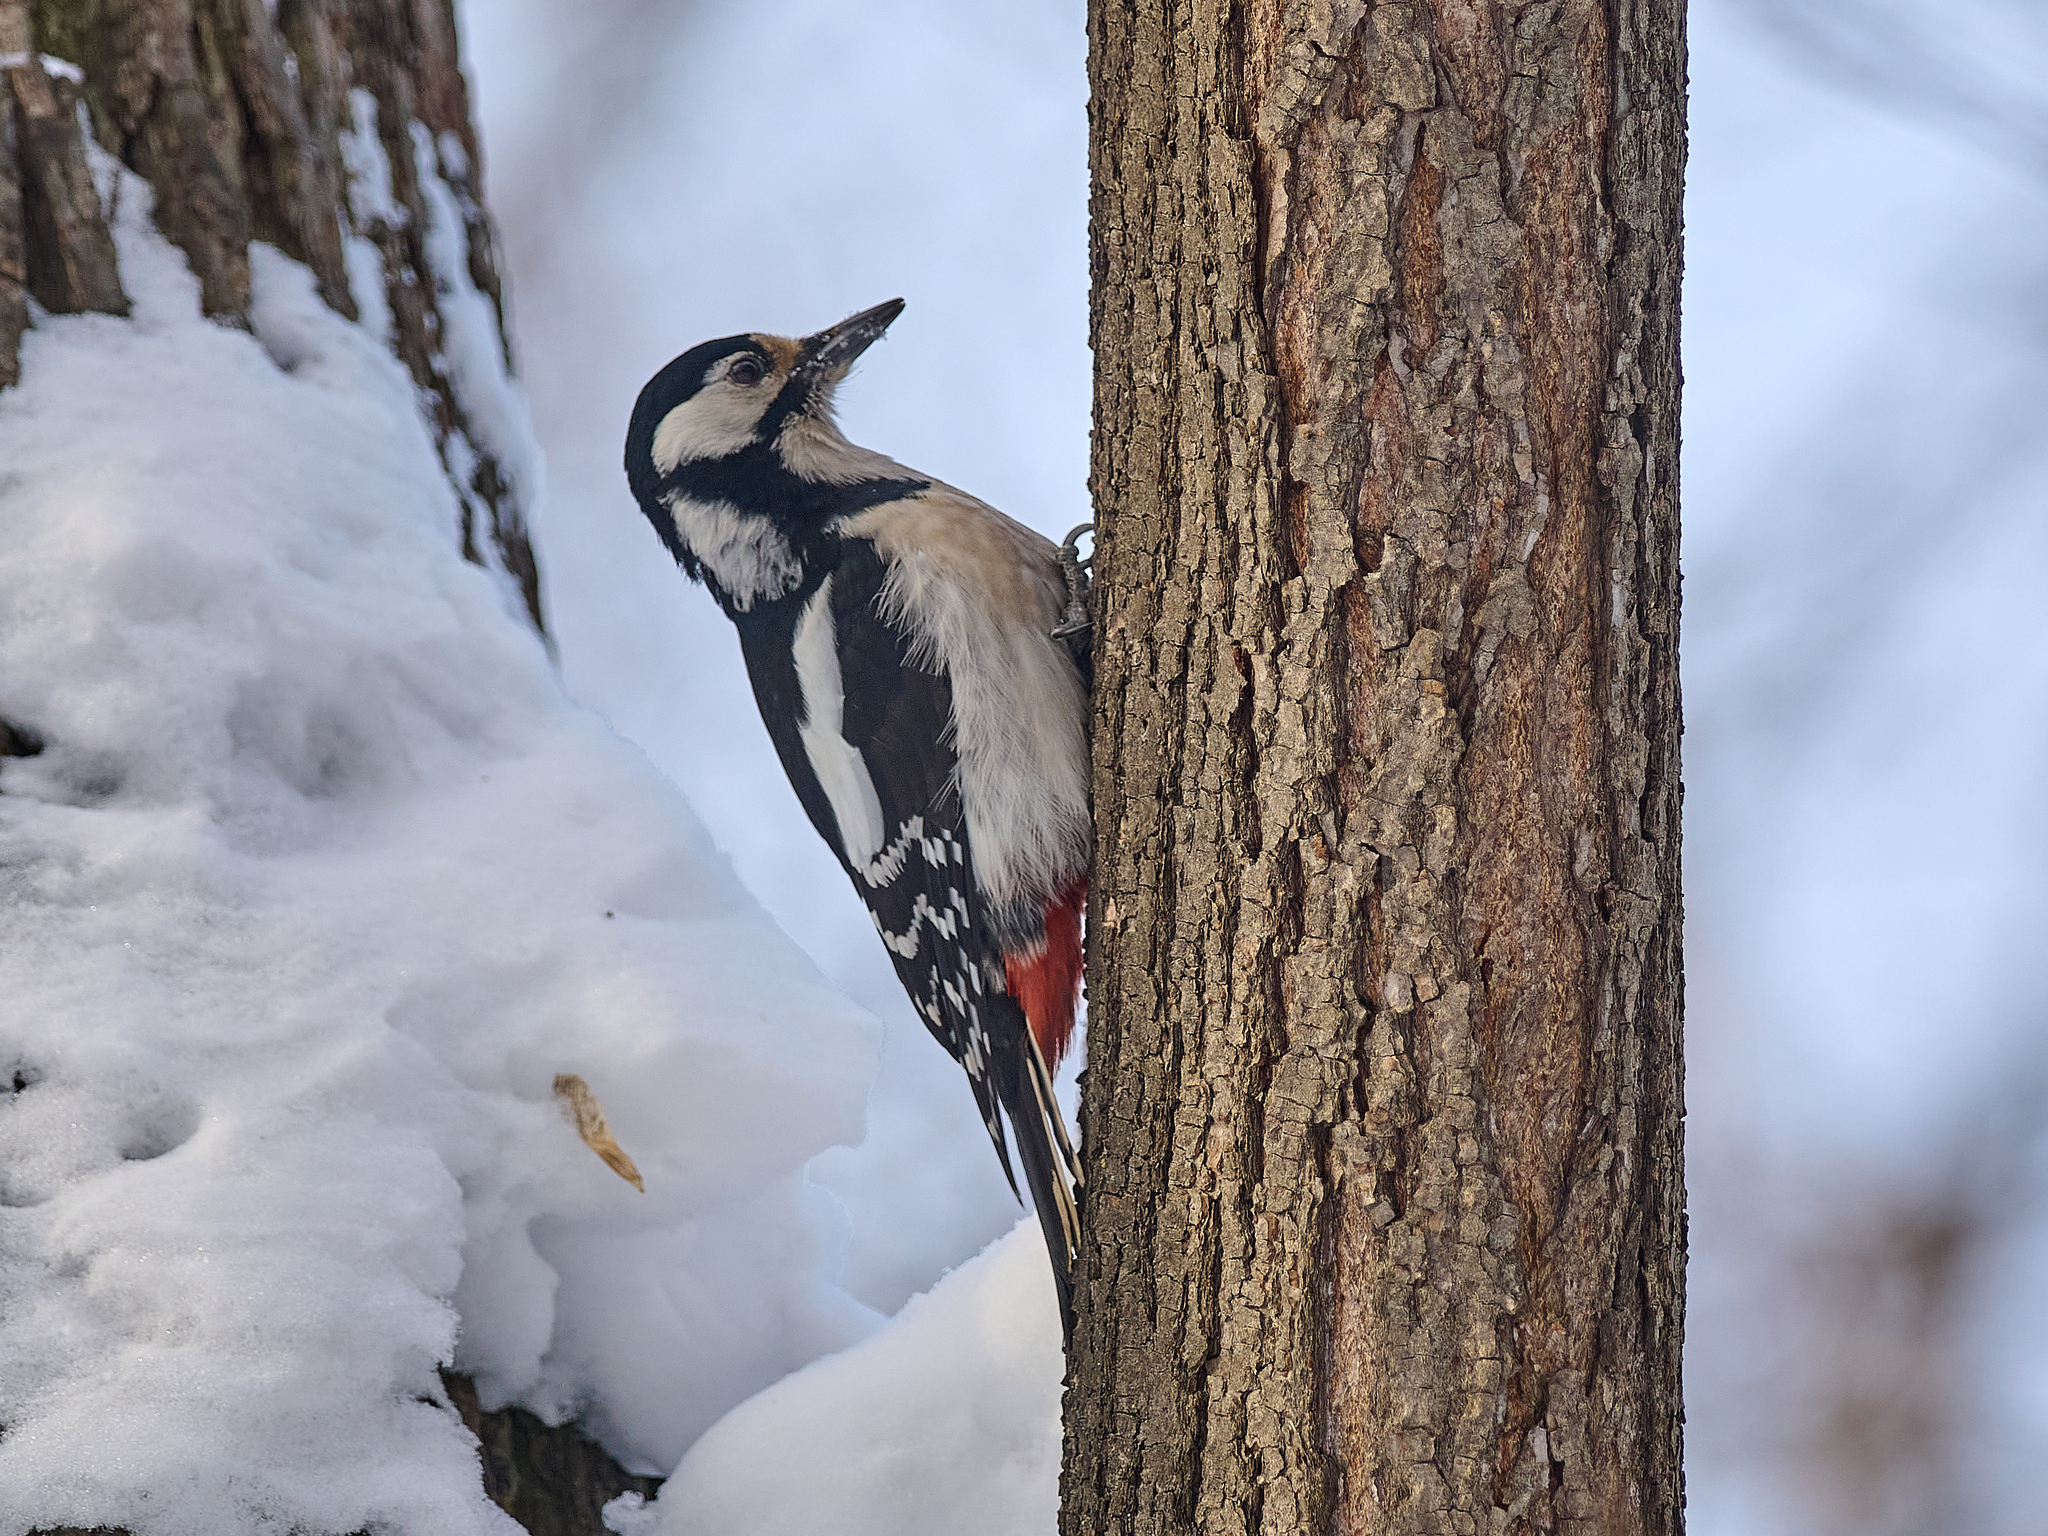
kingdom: Animalia
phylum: Chordata
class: Aves
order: Piciformes
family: Picidae
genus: Dendrocopos
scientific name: Dendrocopos major
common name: Great spotted woodpecker
